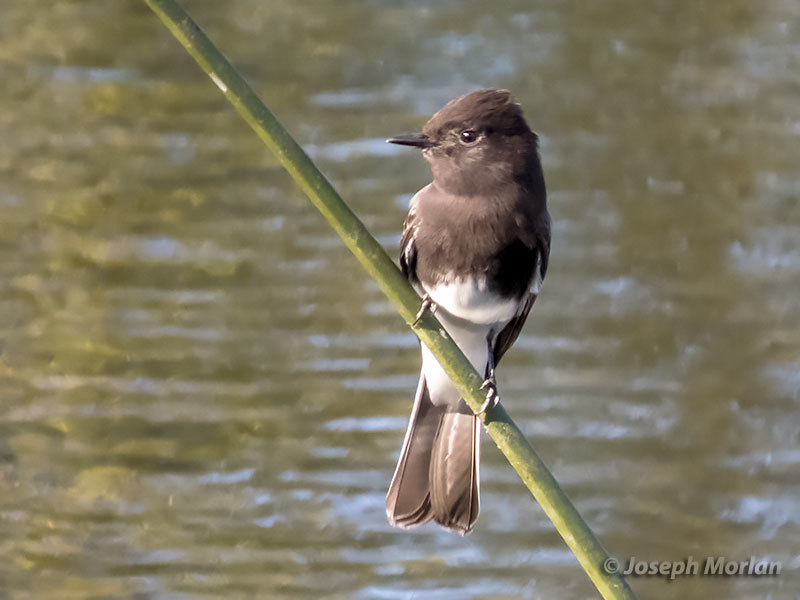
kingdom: Animalia
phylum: Chordata
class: Aves
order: Passeriformes
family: Tyrannidae
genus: Sayornis
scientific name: Sayornis nigricans
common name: Black phoebe
